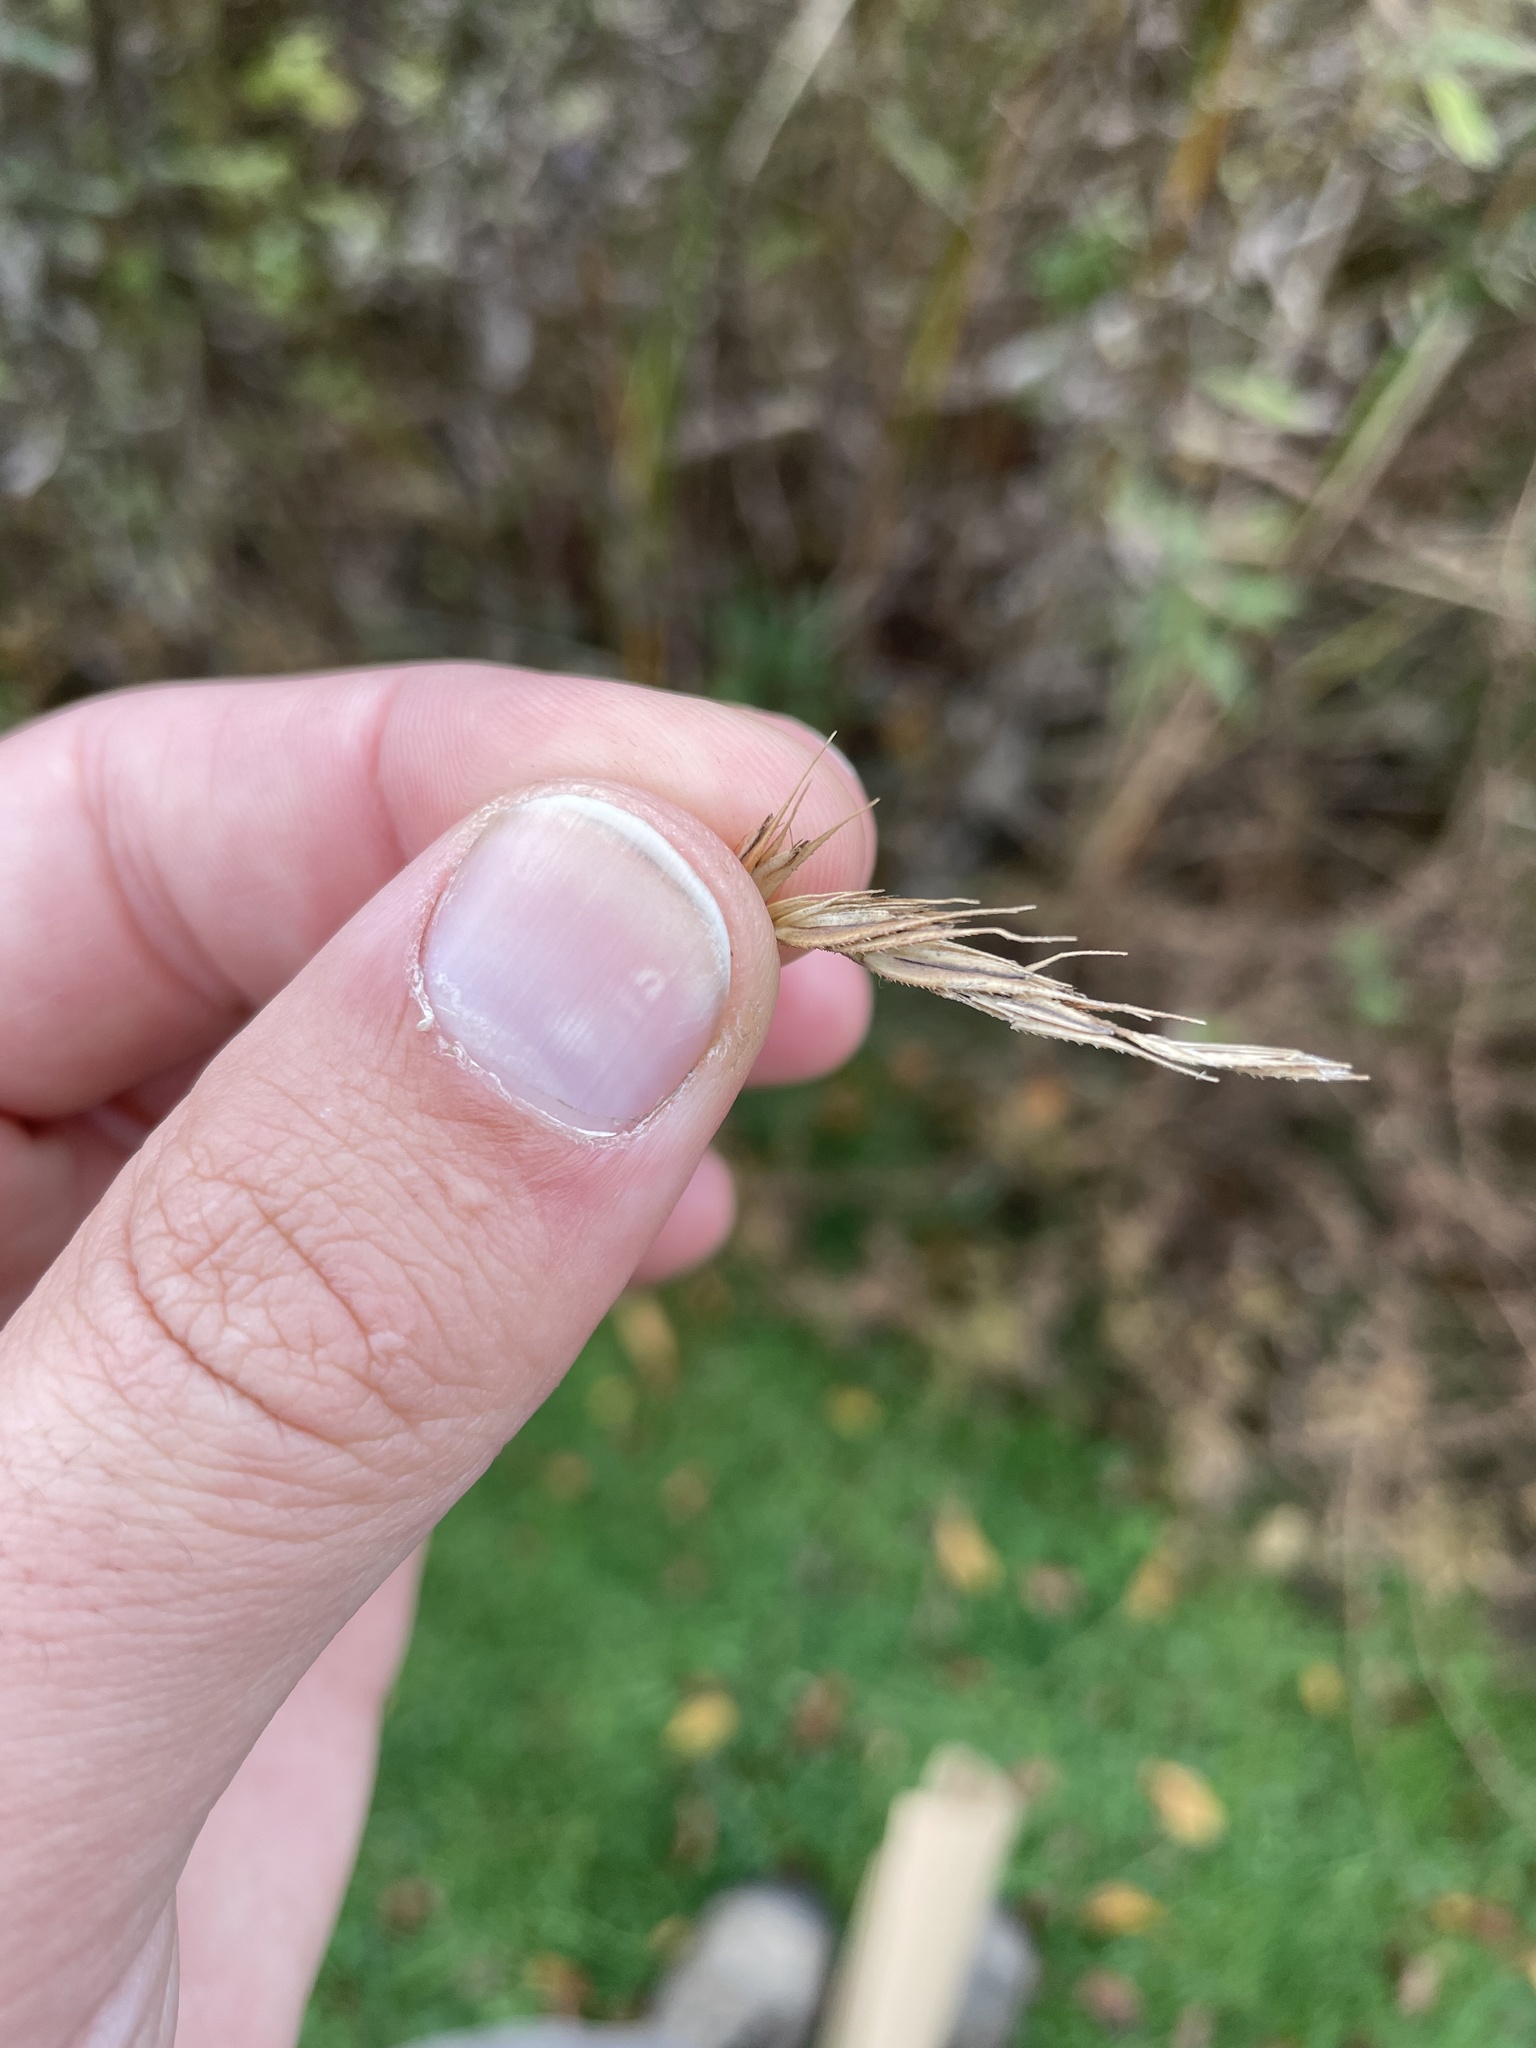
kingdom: Plantae
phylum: Tracheophyta
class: Liliopsida
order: Poales
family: Poaceae
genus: Sporobolus
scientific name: Sporobolus michauxianus
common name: Freshwater cordgrass
